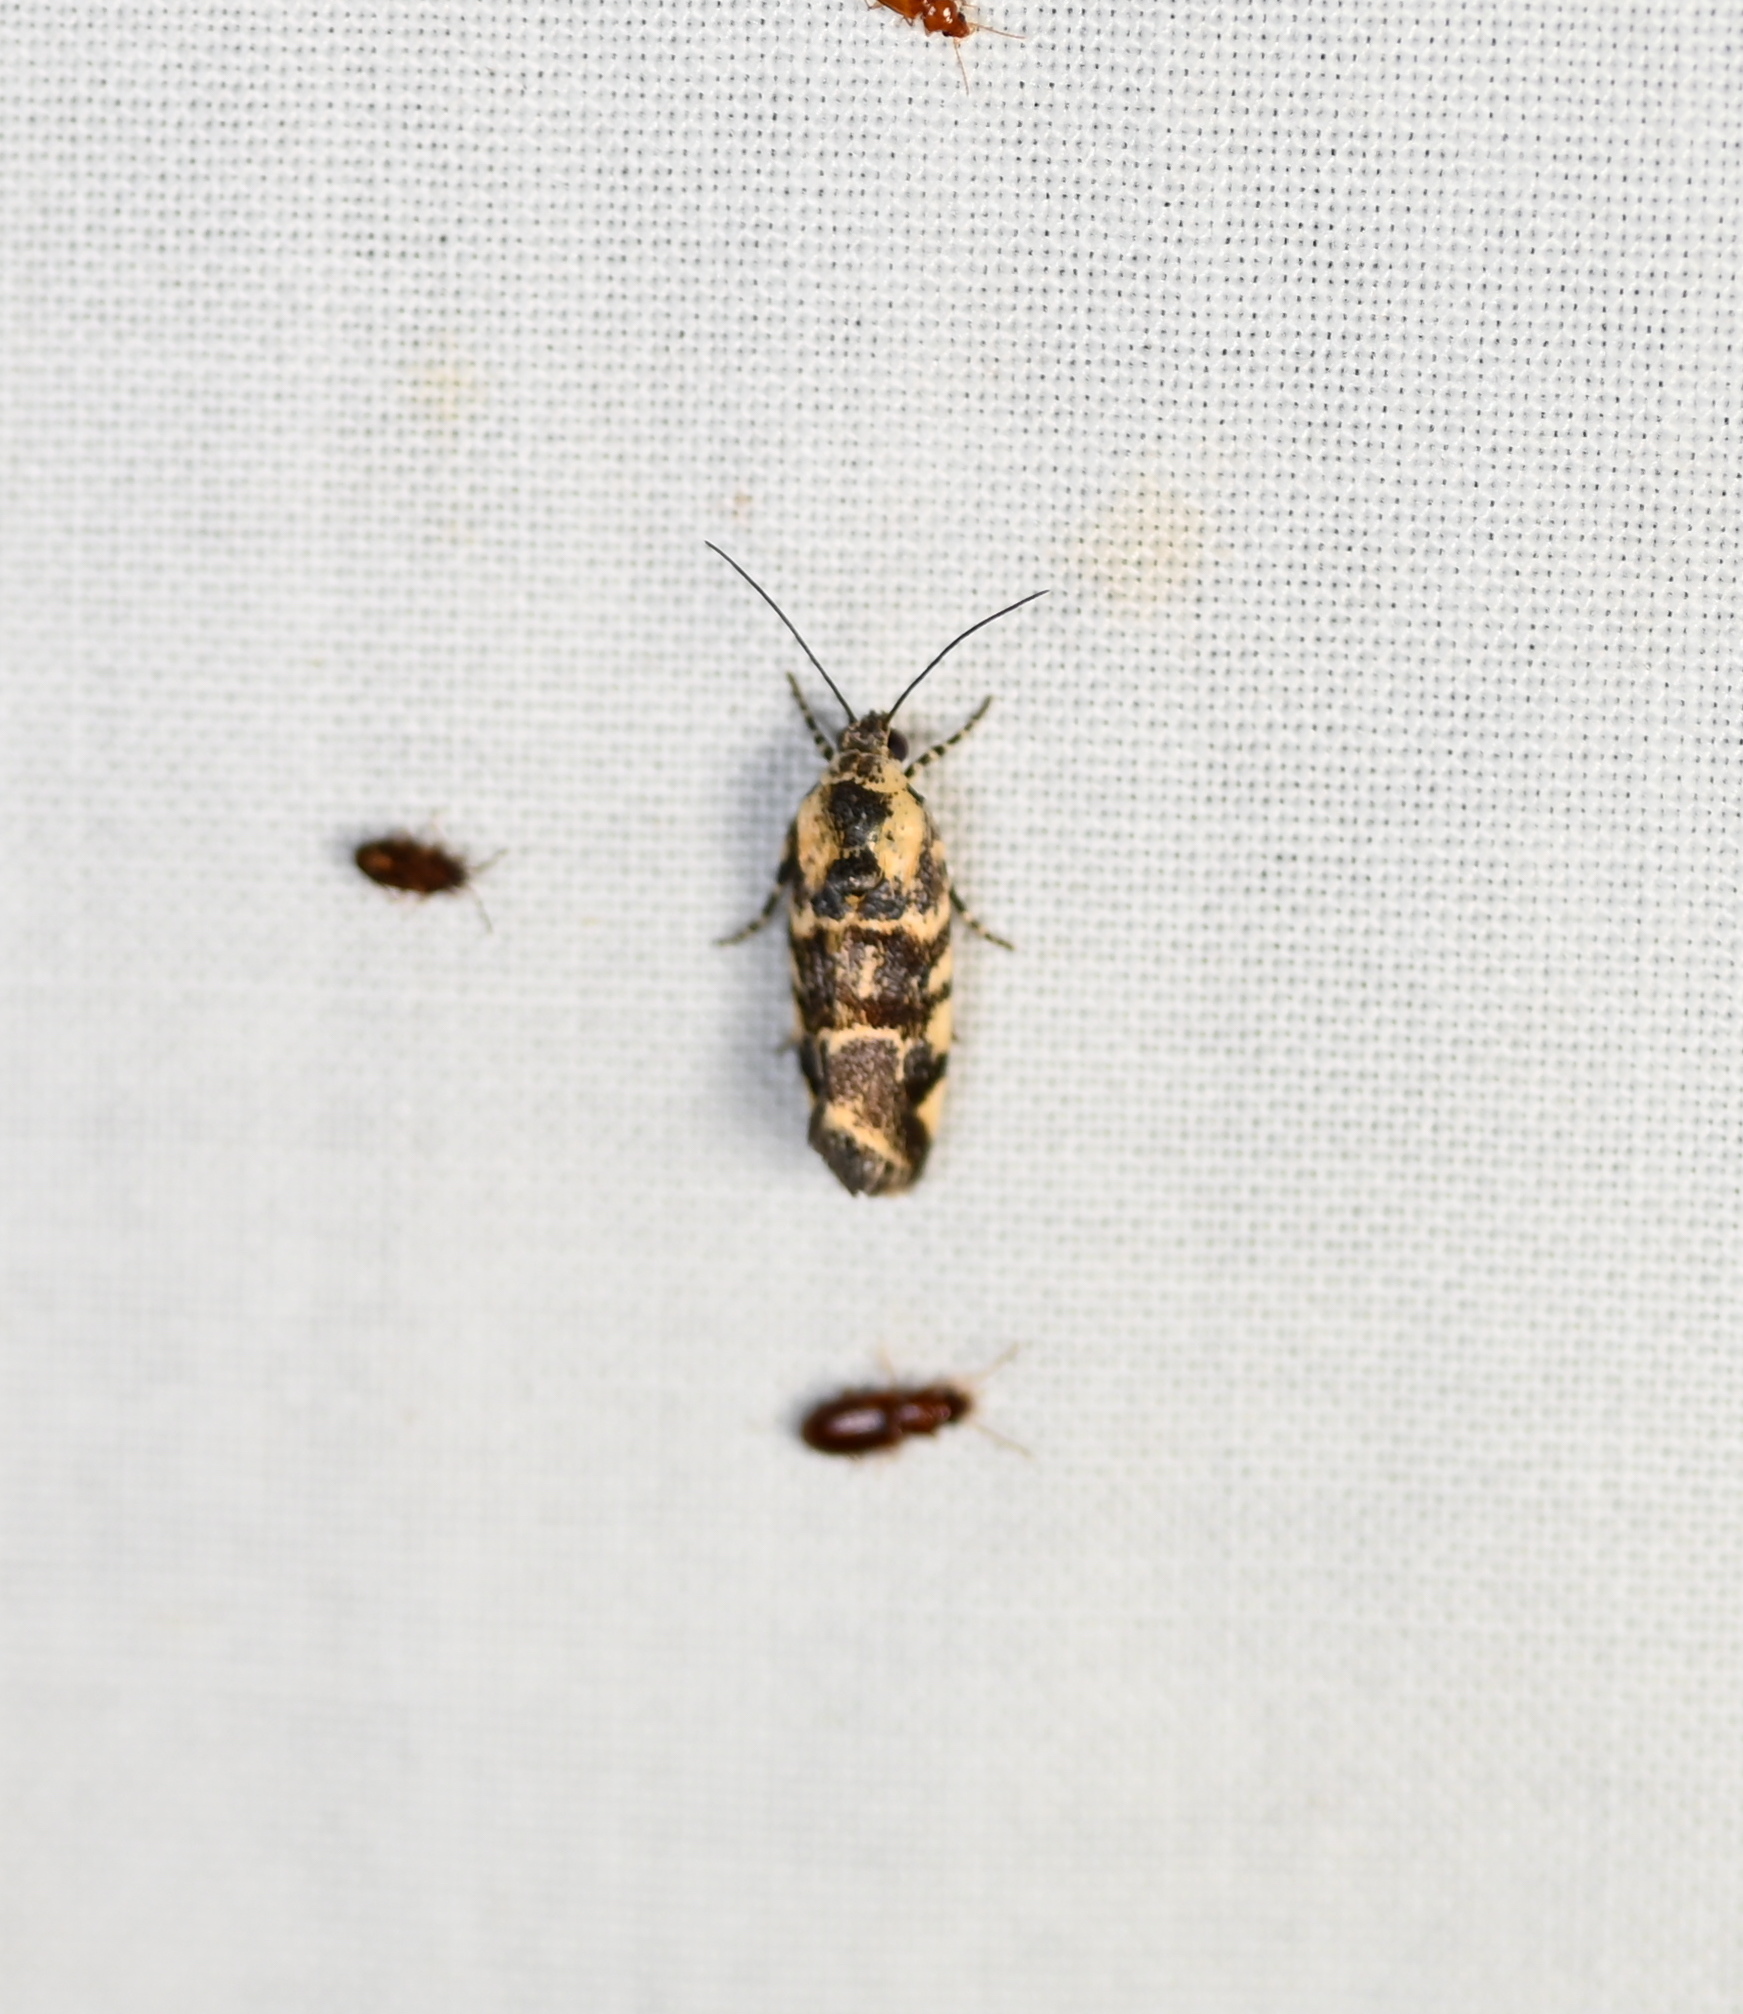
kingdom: Animalia
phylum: Arthropoda
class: Insecta
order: Lepidoptera
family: Noctuidae
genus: Spragueia
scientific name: Spragueia perstructana
